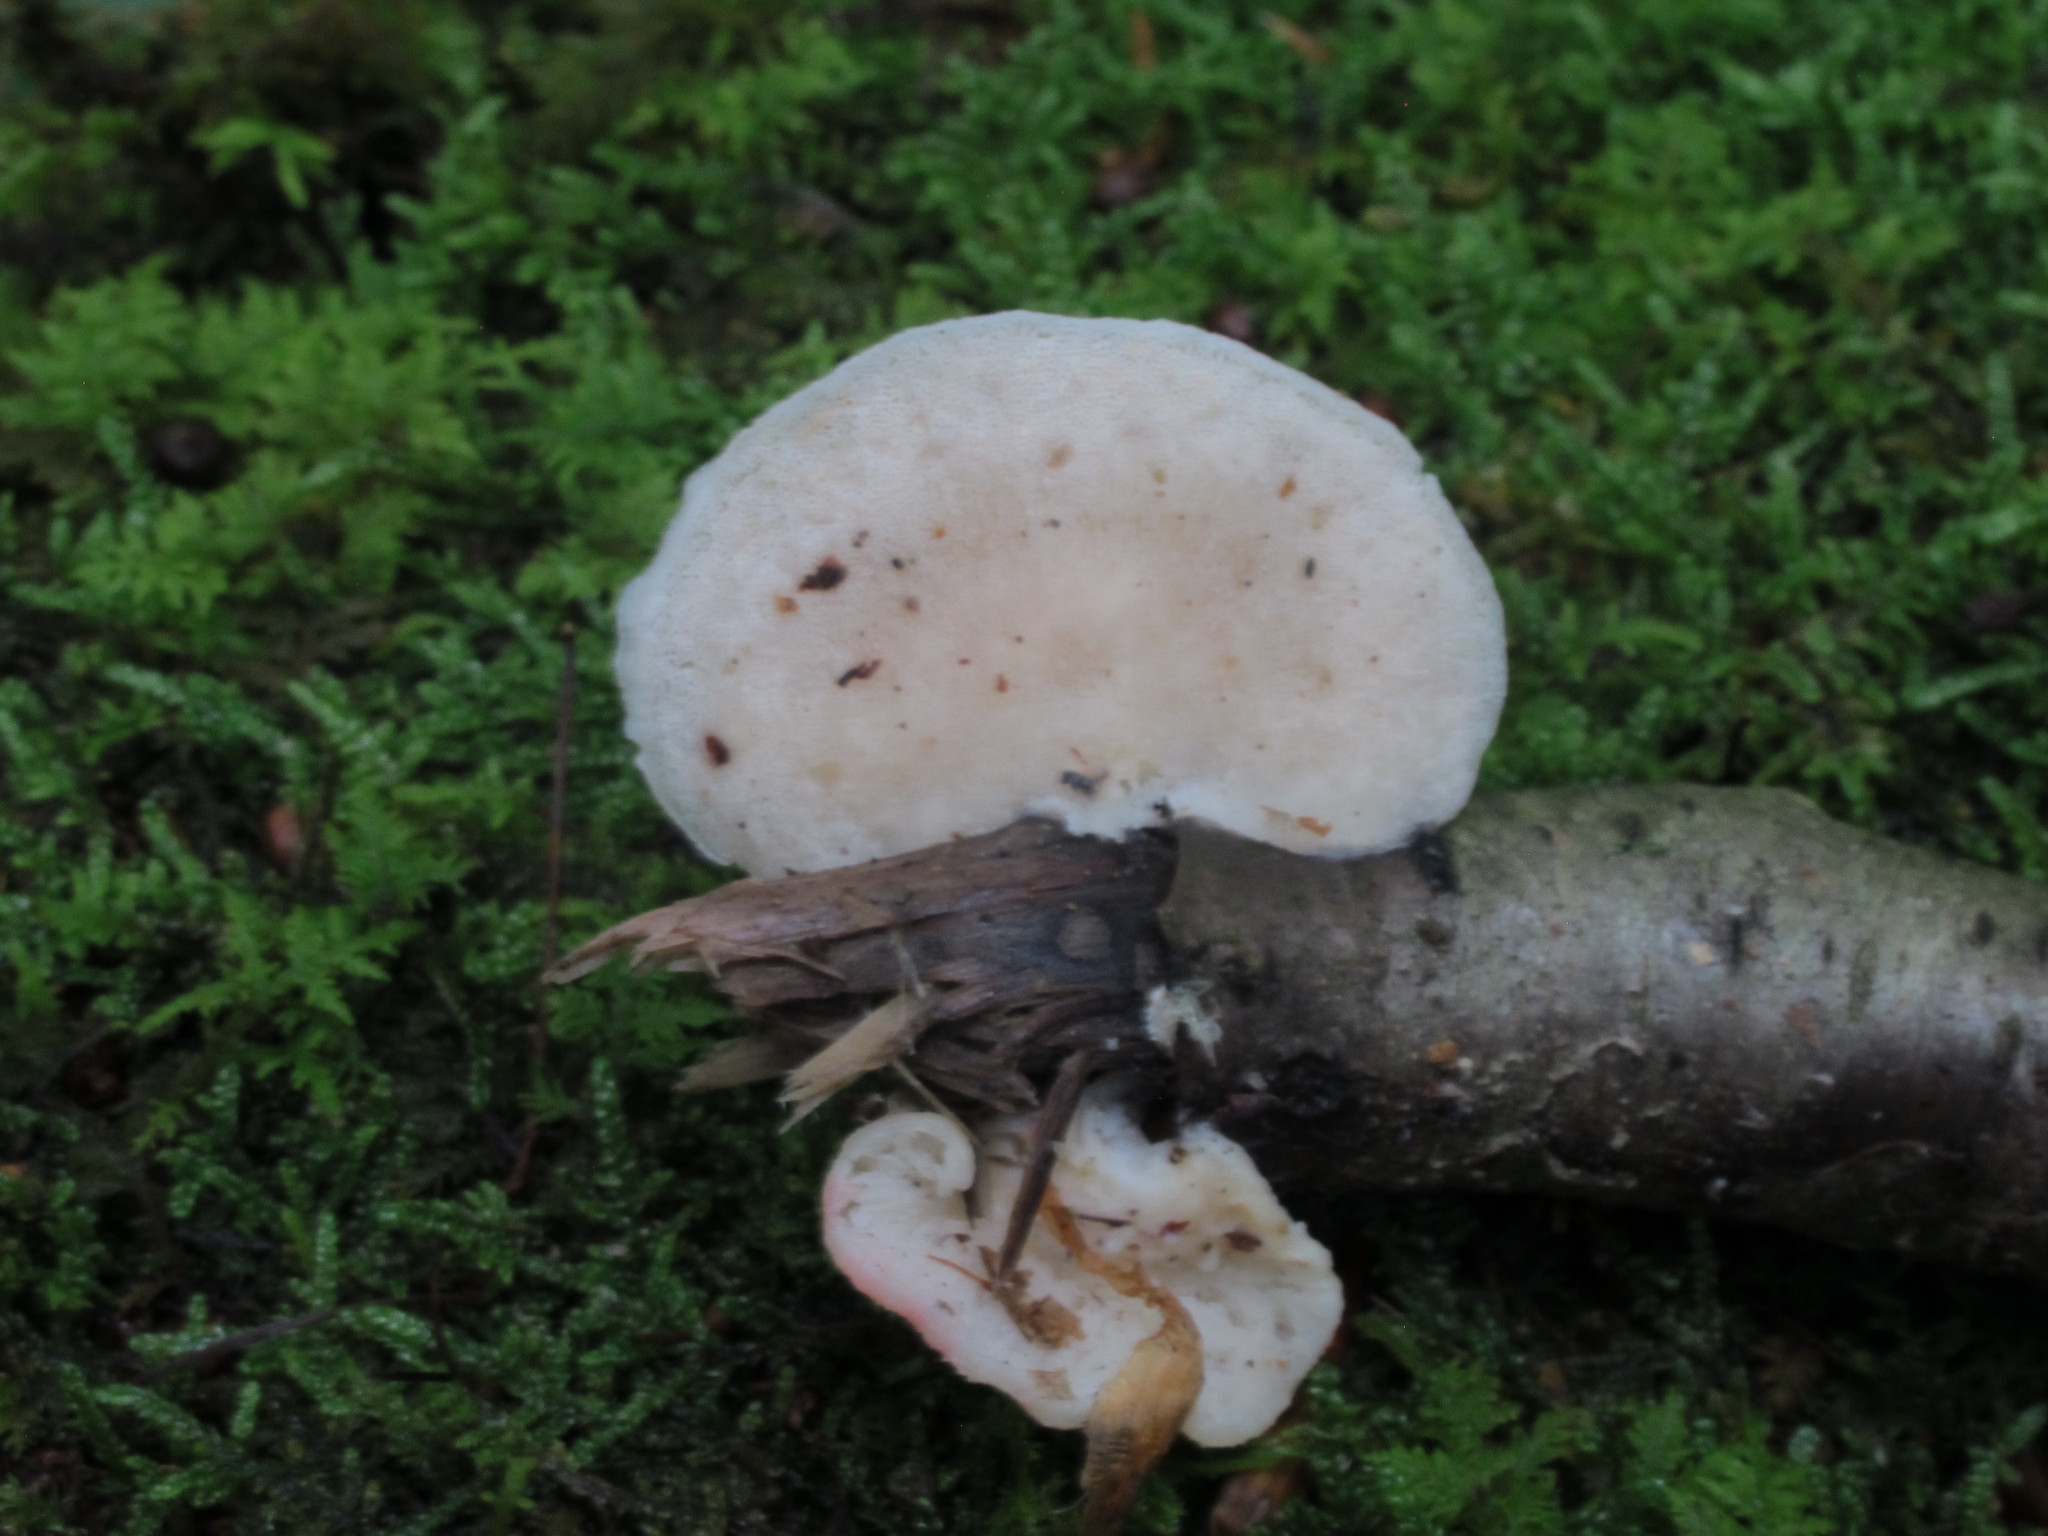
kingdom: Fungi
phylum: Basidiomycota
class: Agaricomycetes
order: Polyporales
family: Incrustoporiaceae
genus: Tyromyces
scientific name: Tyromyces chioneus
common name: White cheese polypore
